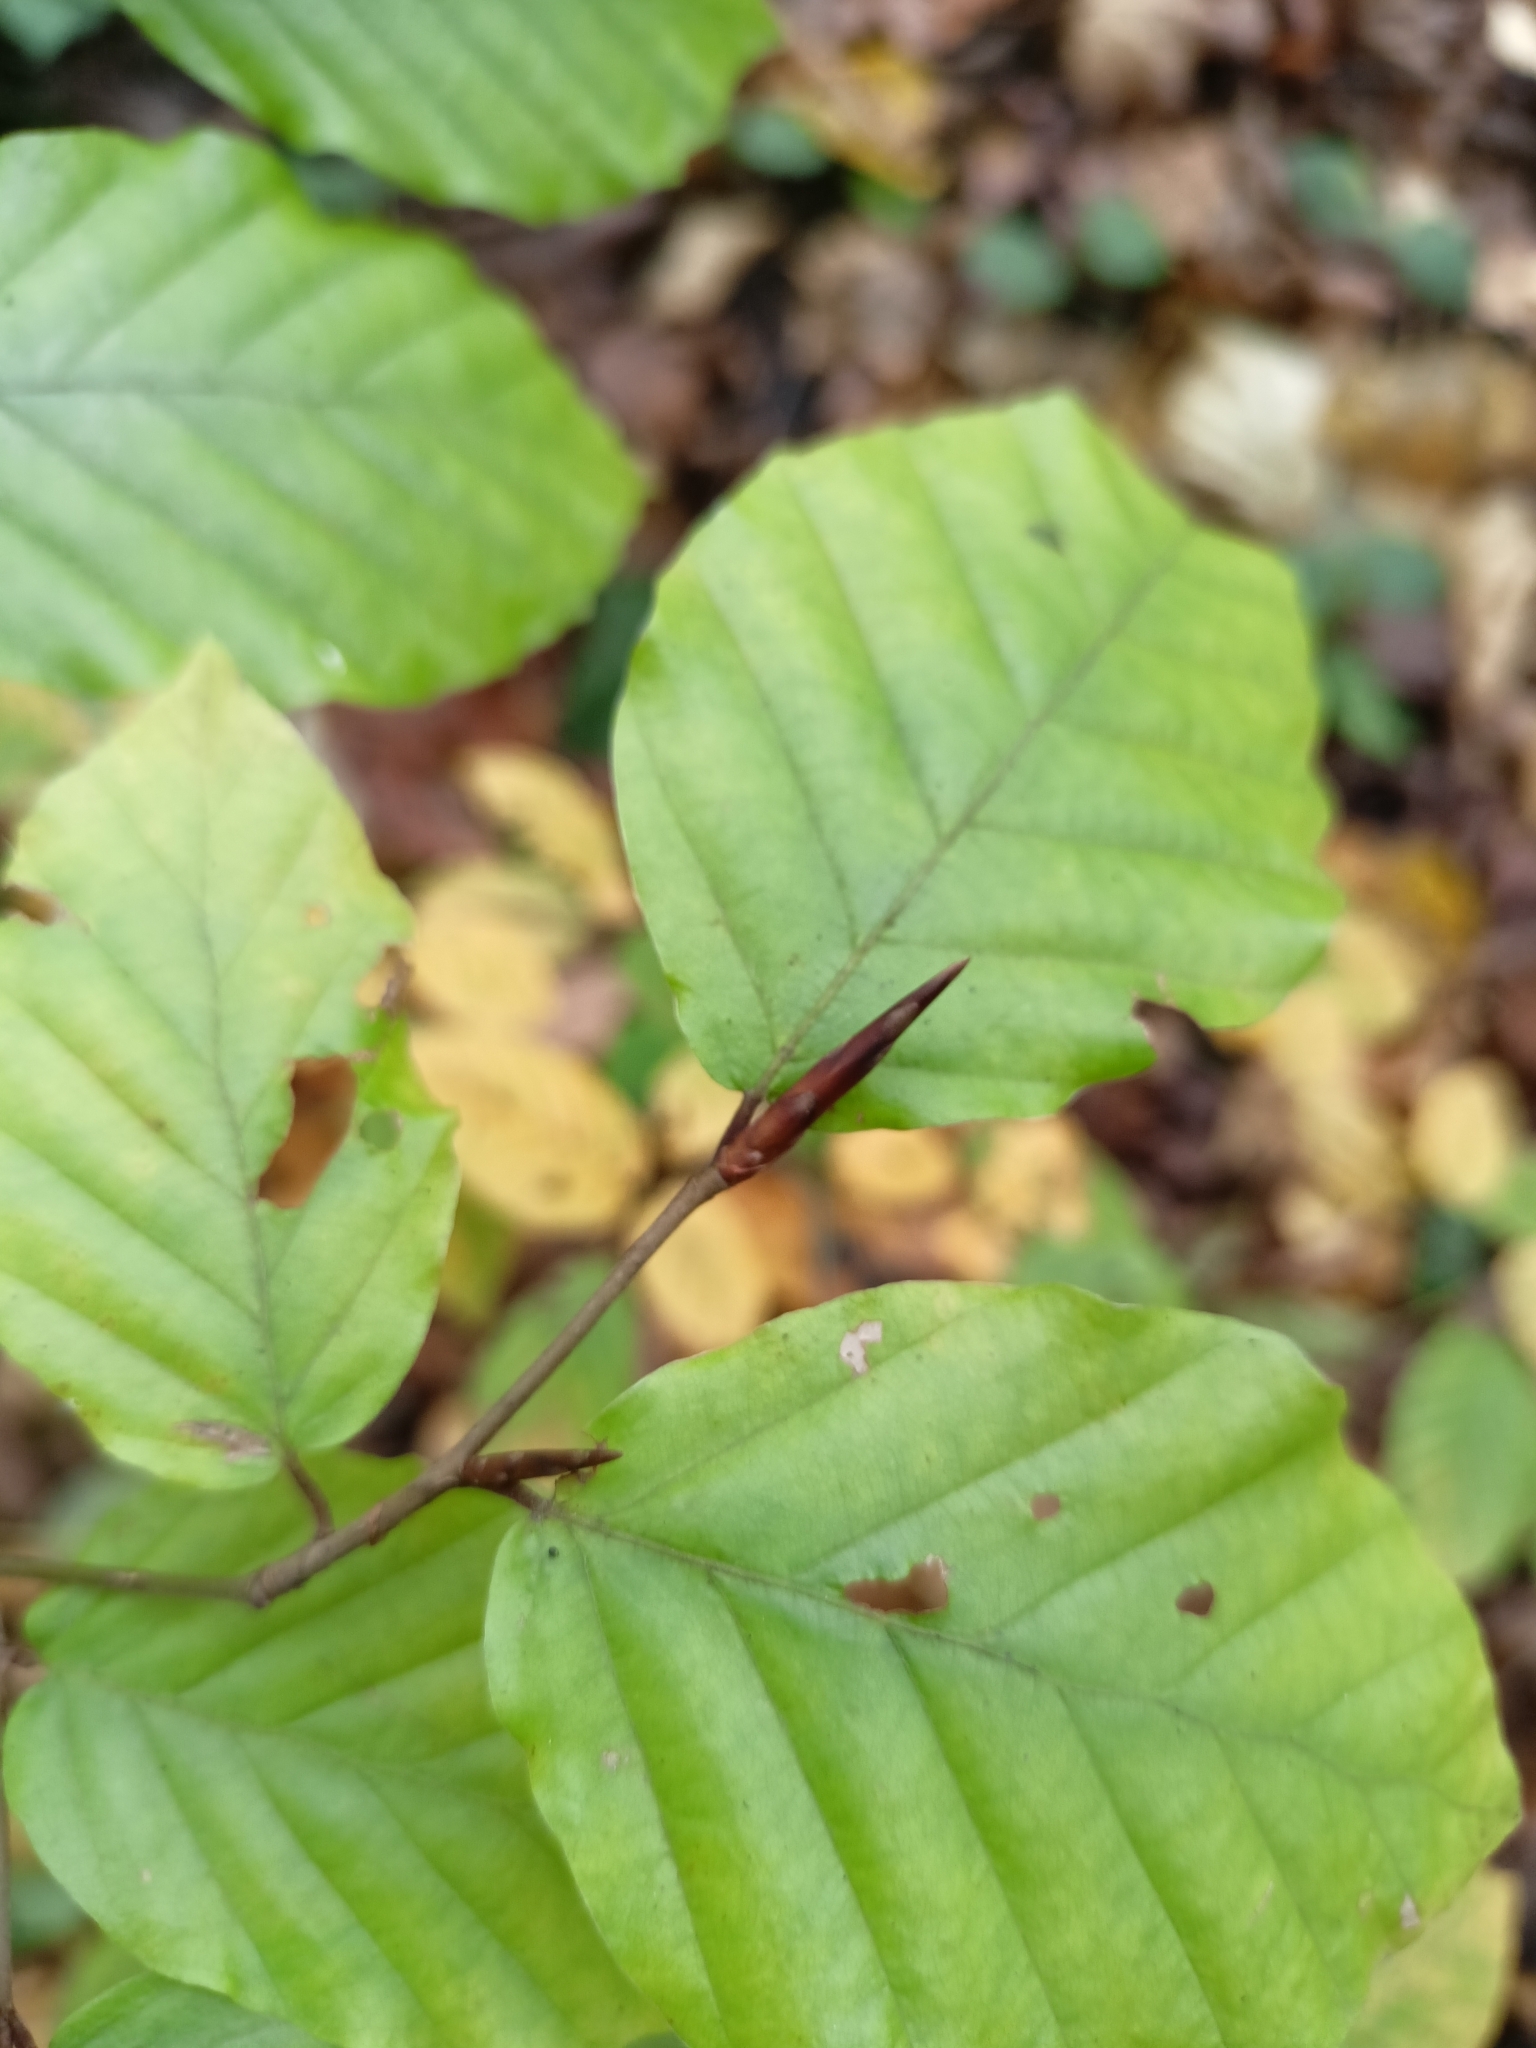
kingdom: Plantae
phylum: Tracheophyta
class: Magnoliopsida
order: Fagales
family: Fagaceae
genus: Fagus
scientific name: Fagus sylvatica
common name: Beech
